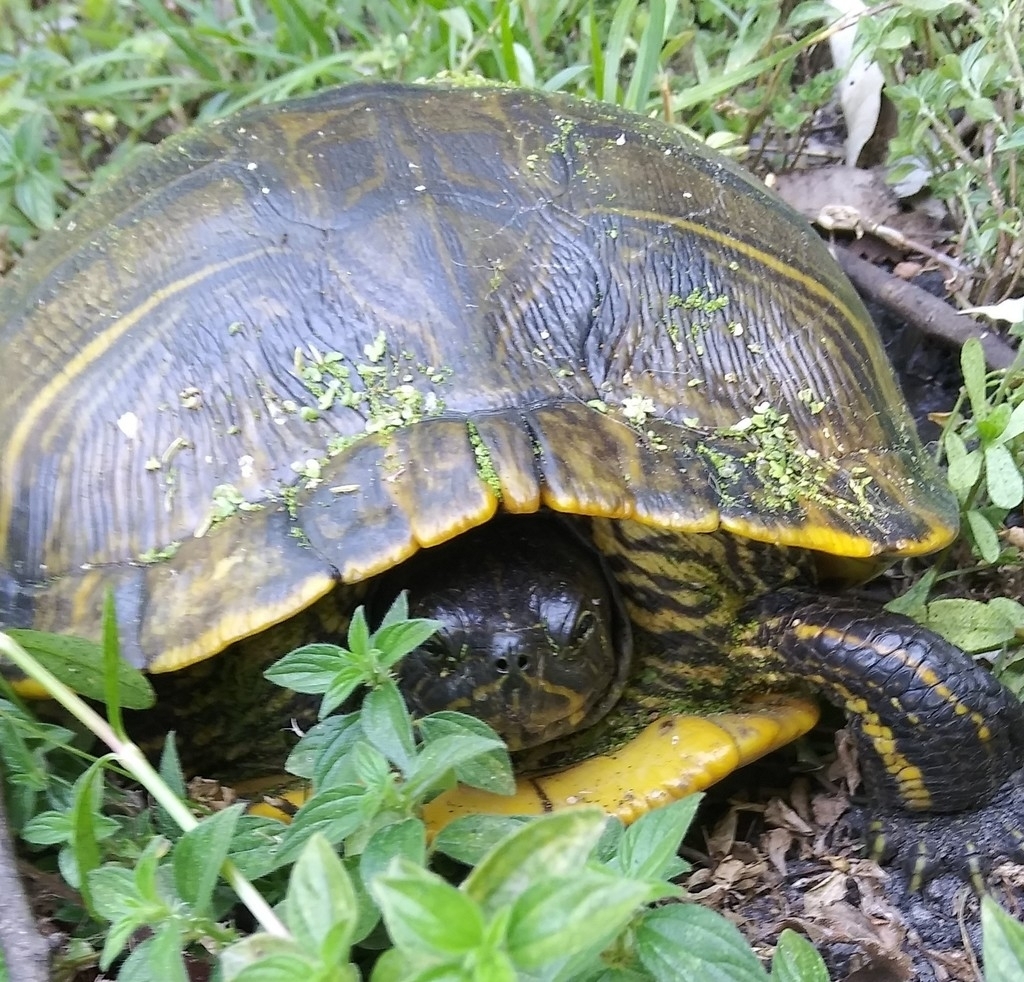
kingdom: Animalia
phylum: Chordata
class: Testudines
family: Emydidae
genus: Trachemys
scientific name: Trachemys scripta
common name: Slider
